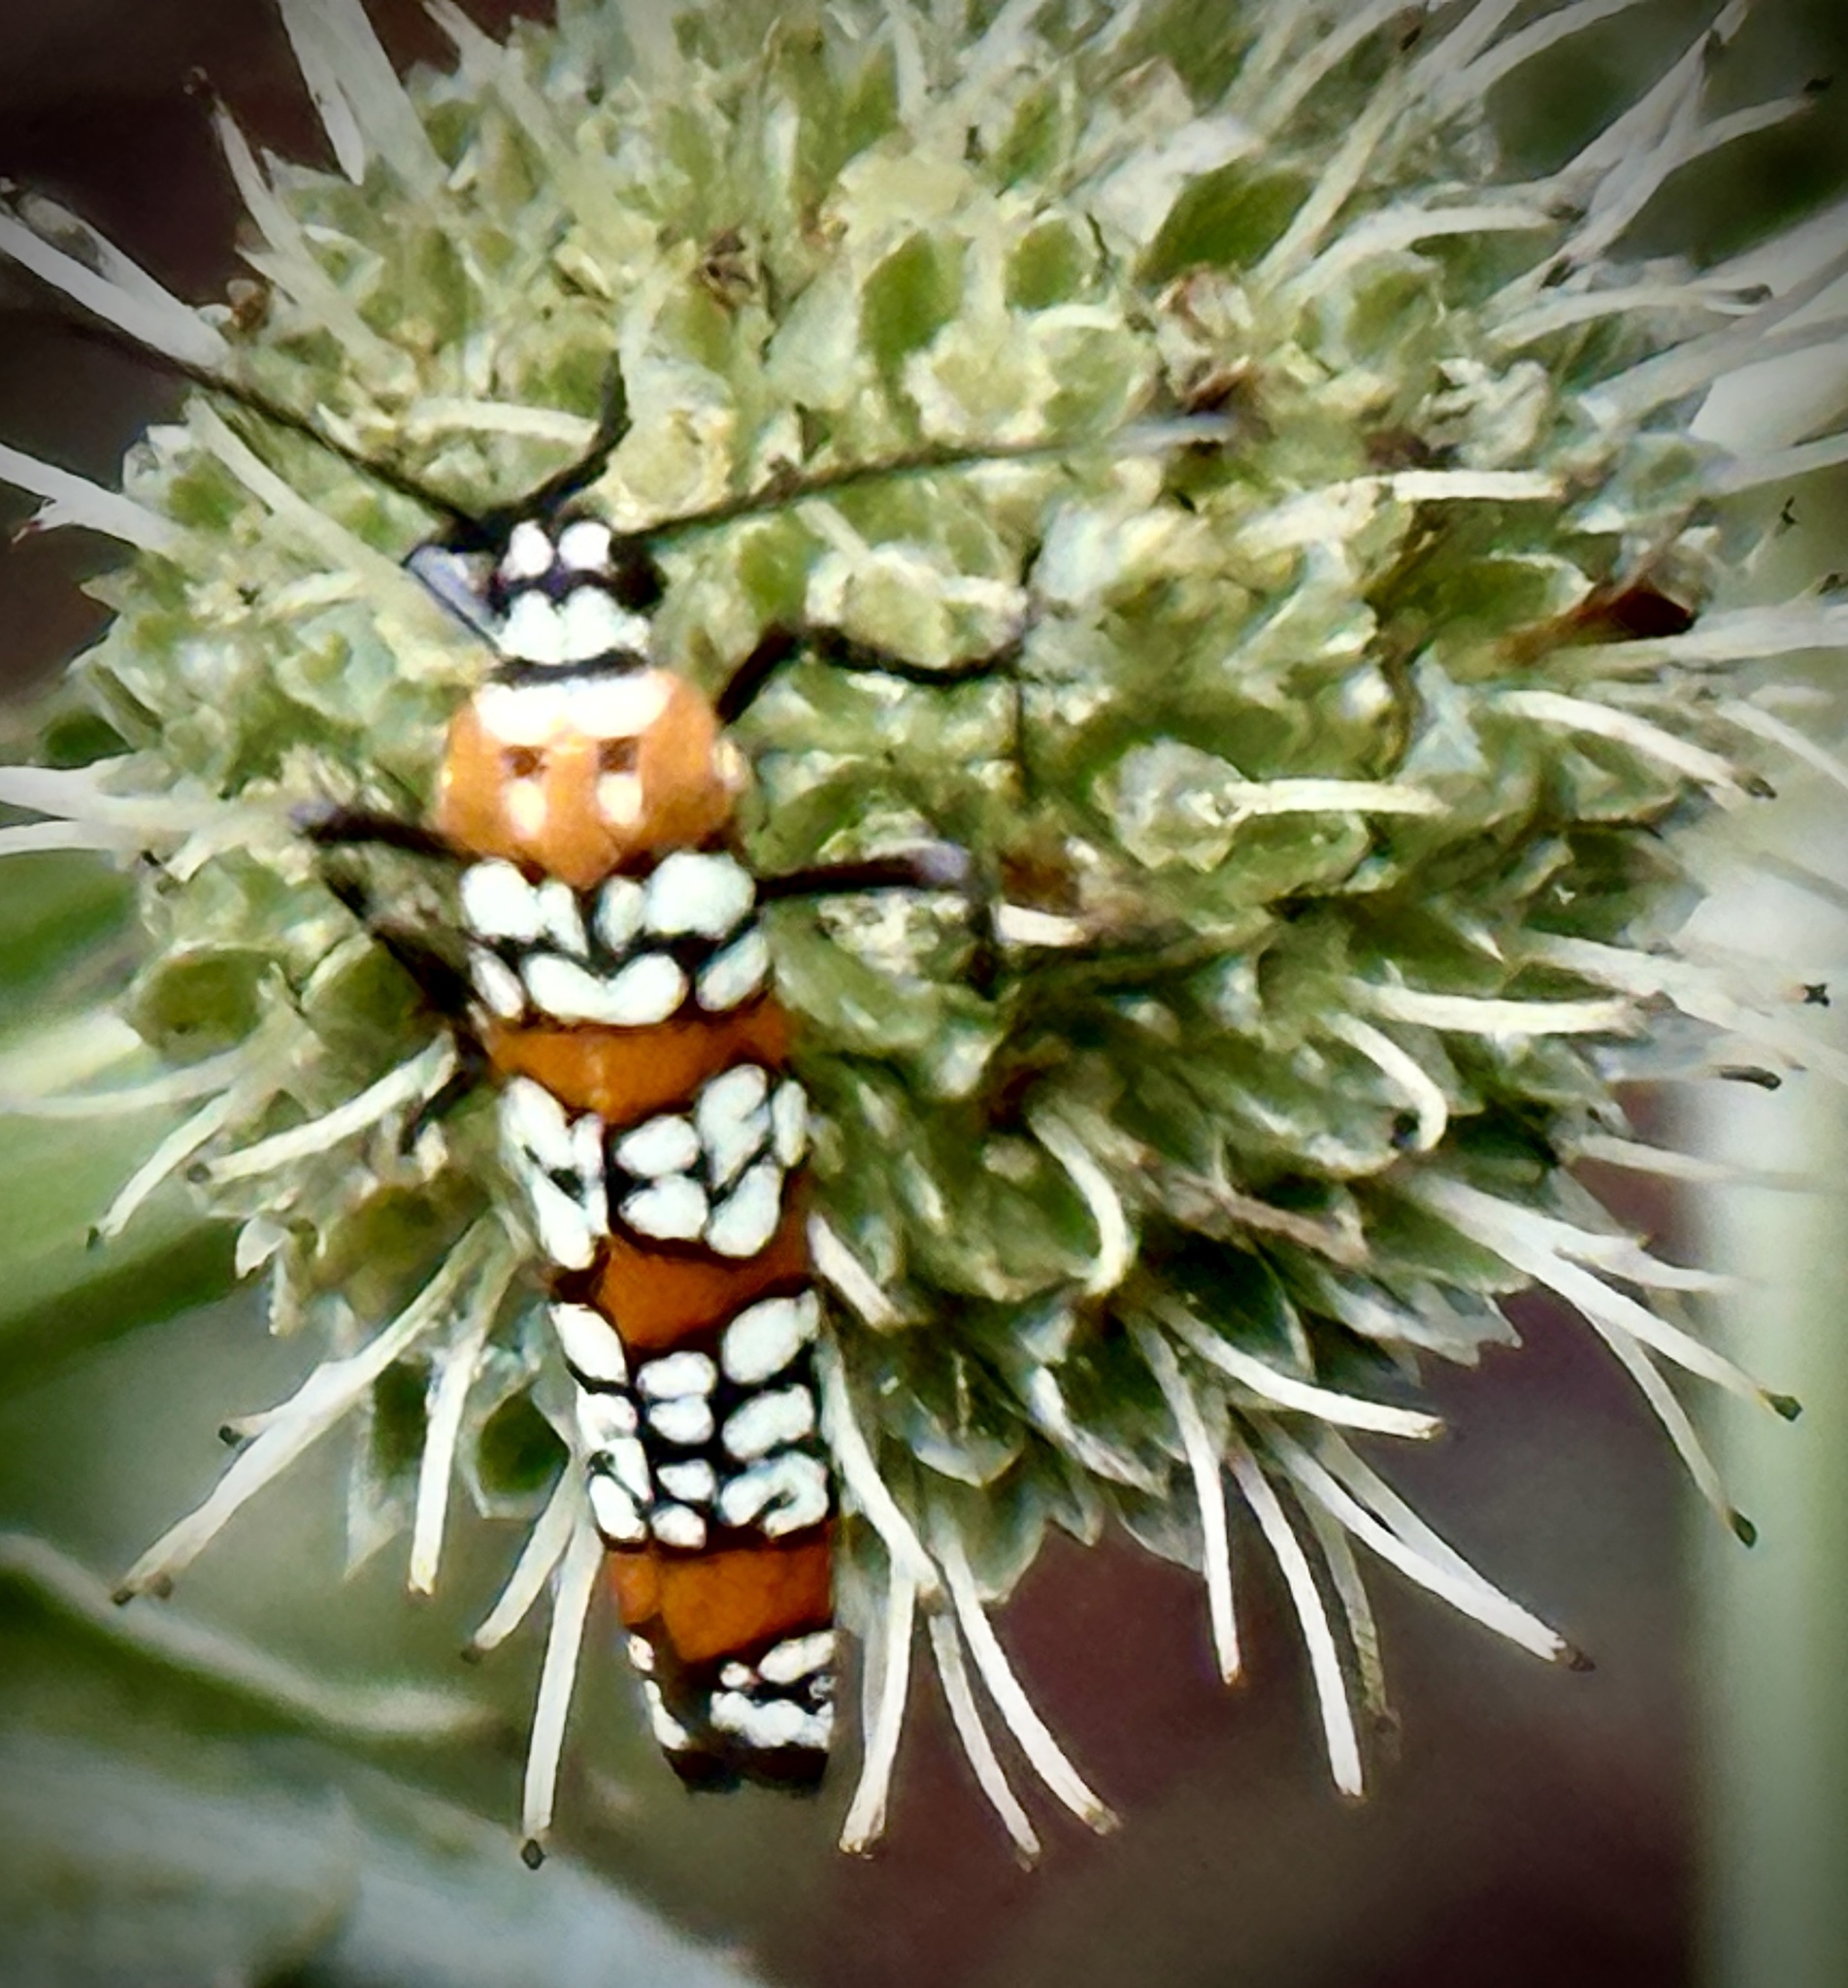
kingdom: Animalia
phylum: Arthropoda
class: Insecta
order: Lepidoptera
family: Attevidae
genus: Atteva
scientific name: Atteva punctella
